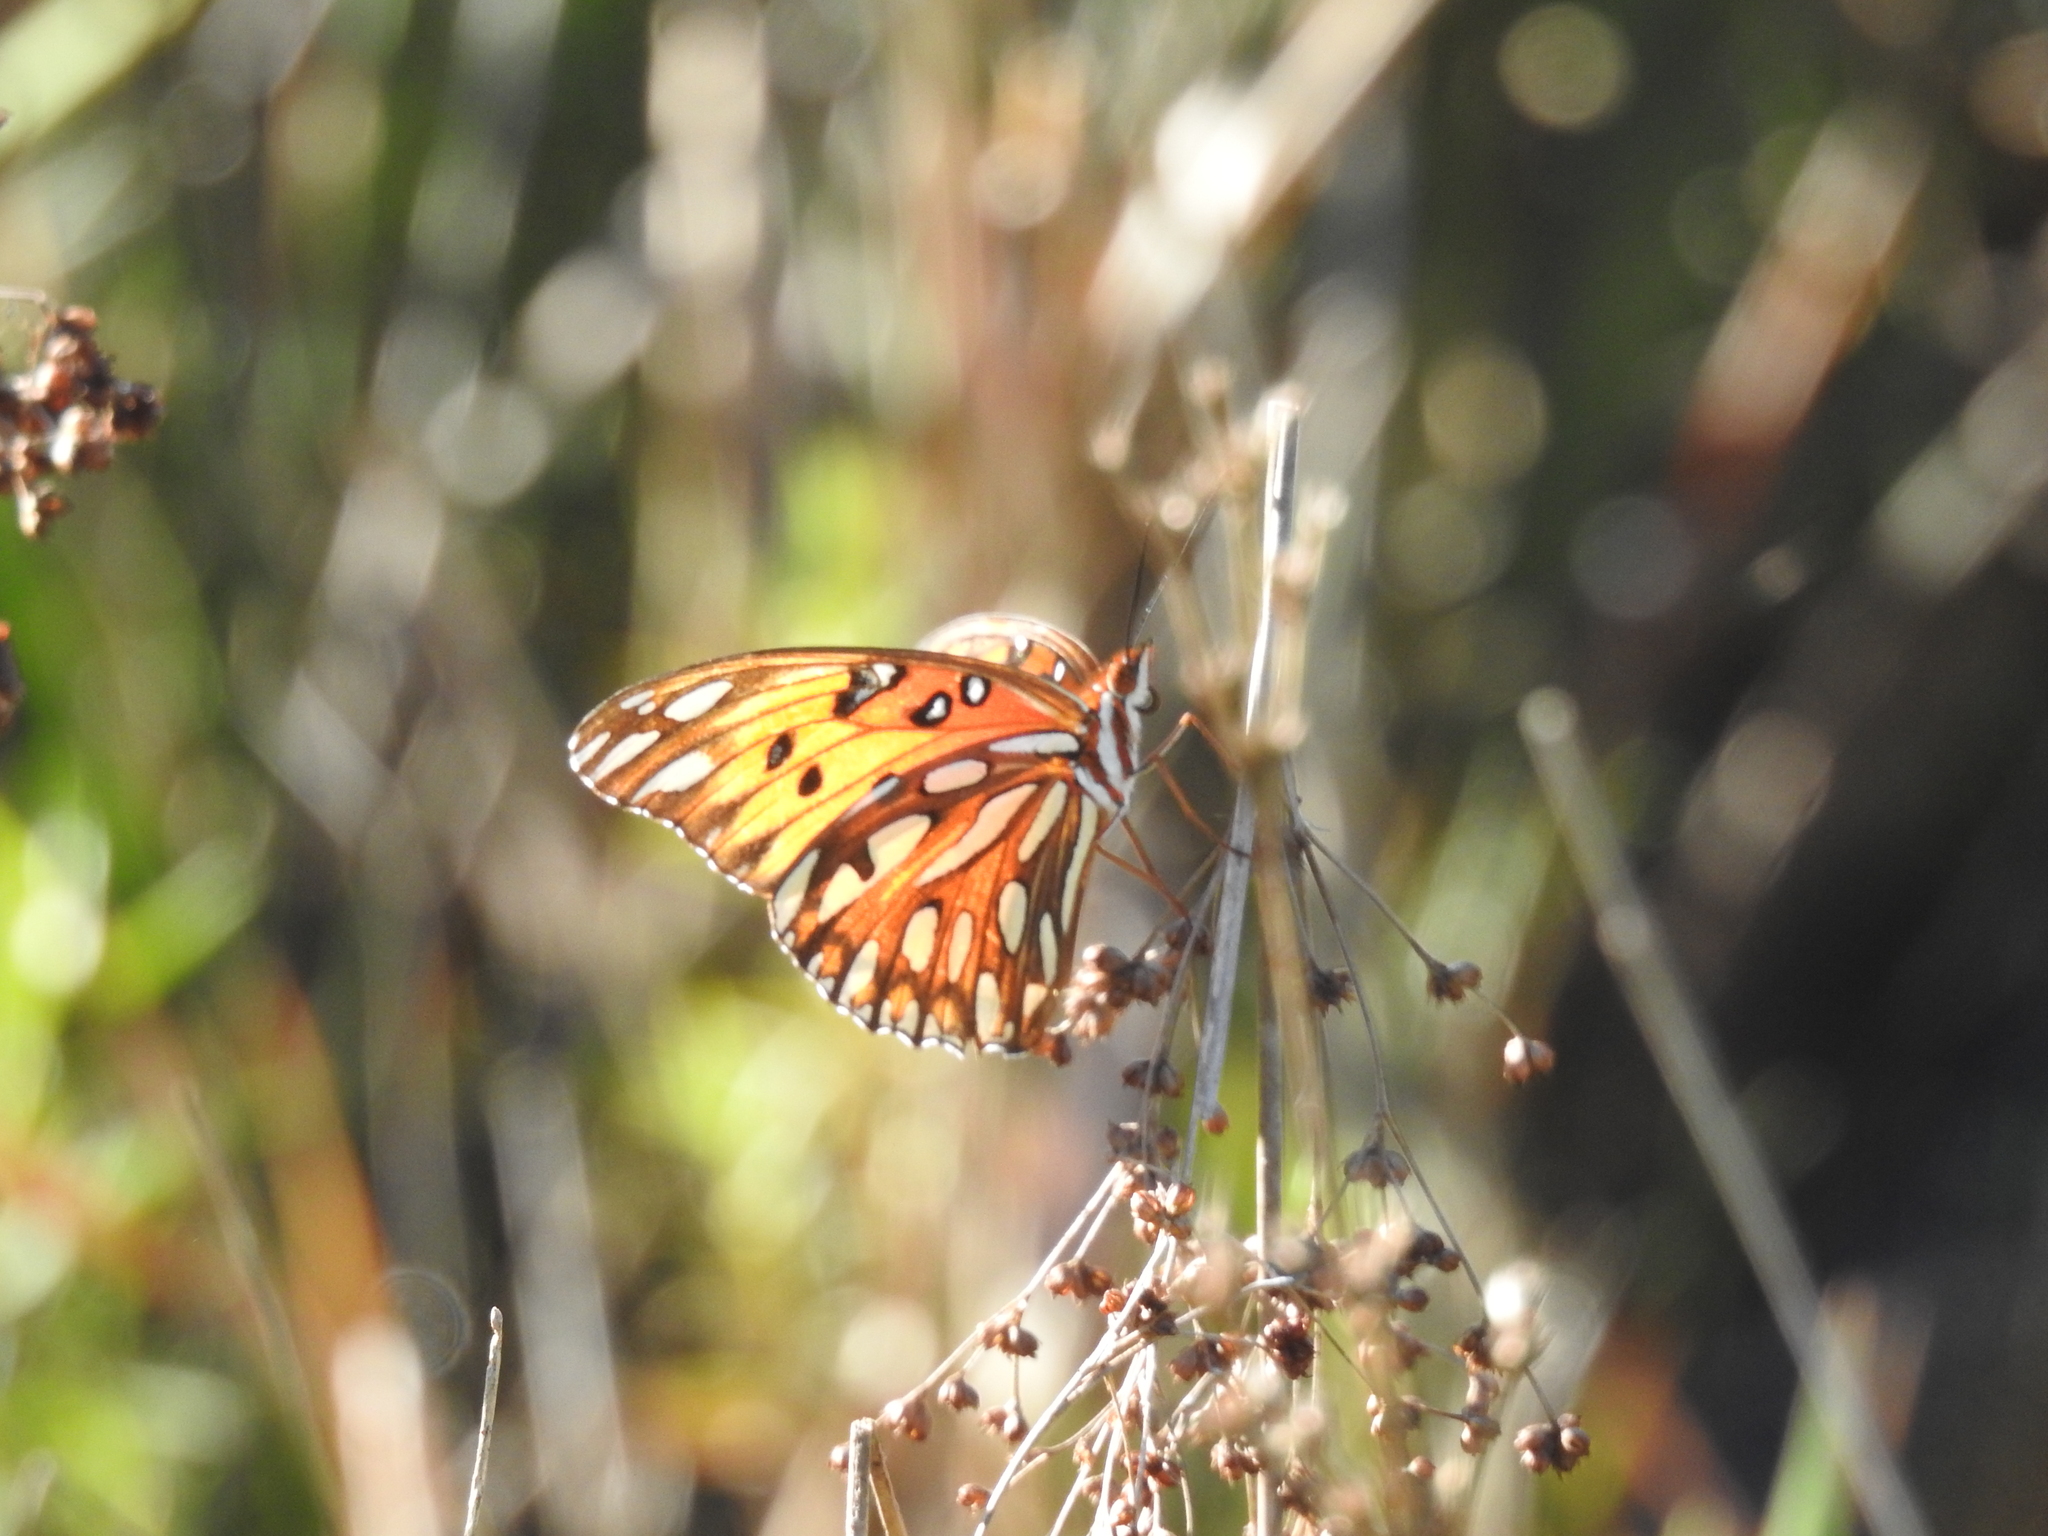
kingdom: Animalia
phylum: Arthropoda
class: Insecta
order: Lepidoptera
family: Nymphalidae
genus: Dione
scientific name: Dione vanillae
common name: Gulf fritillary
